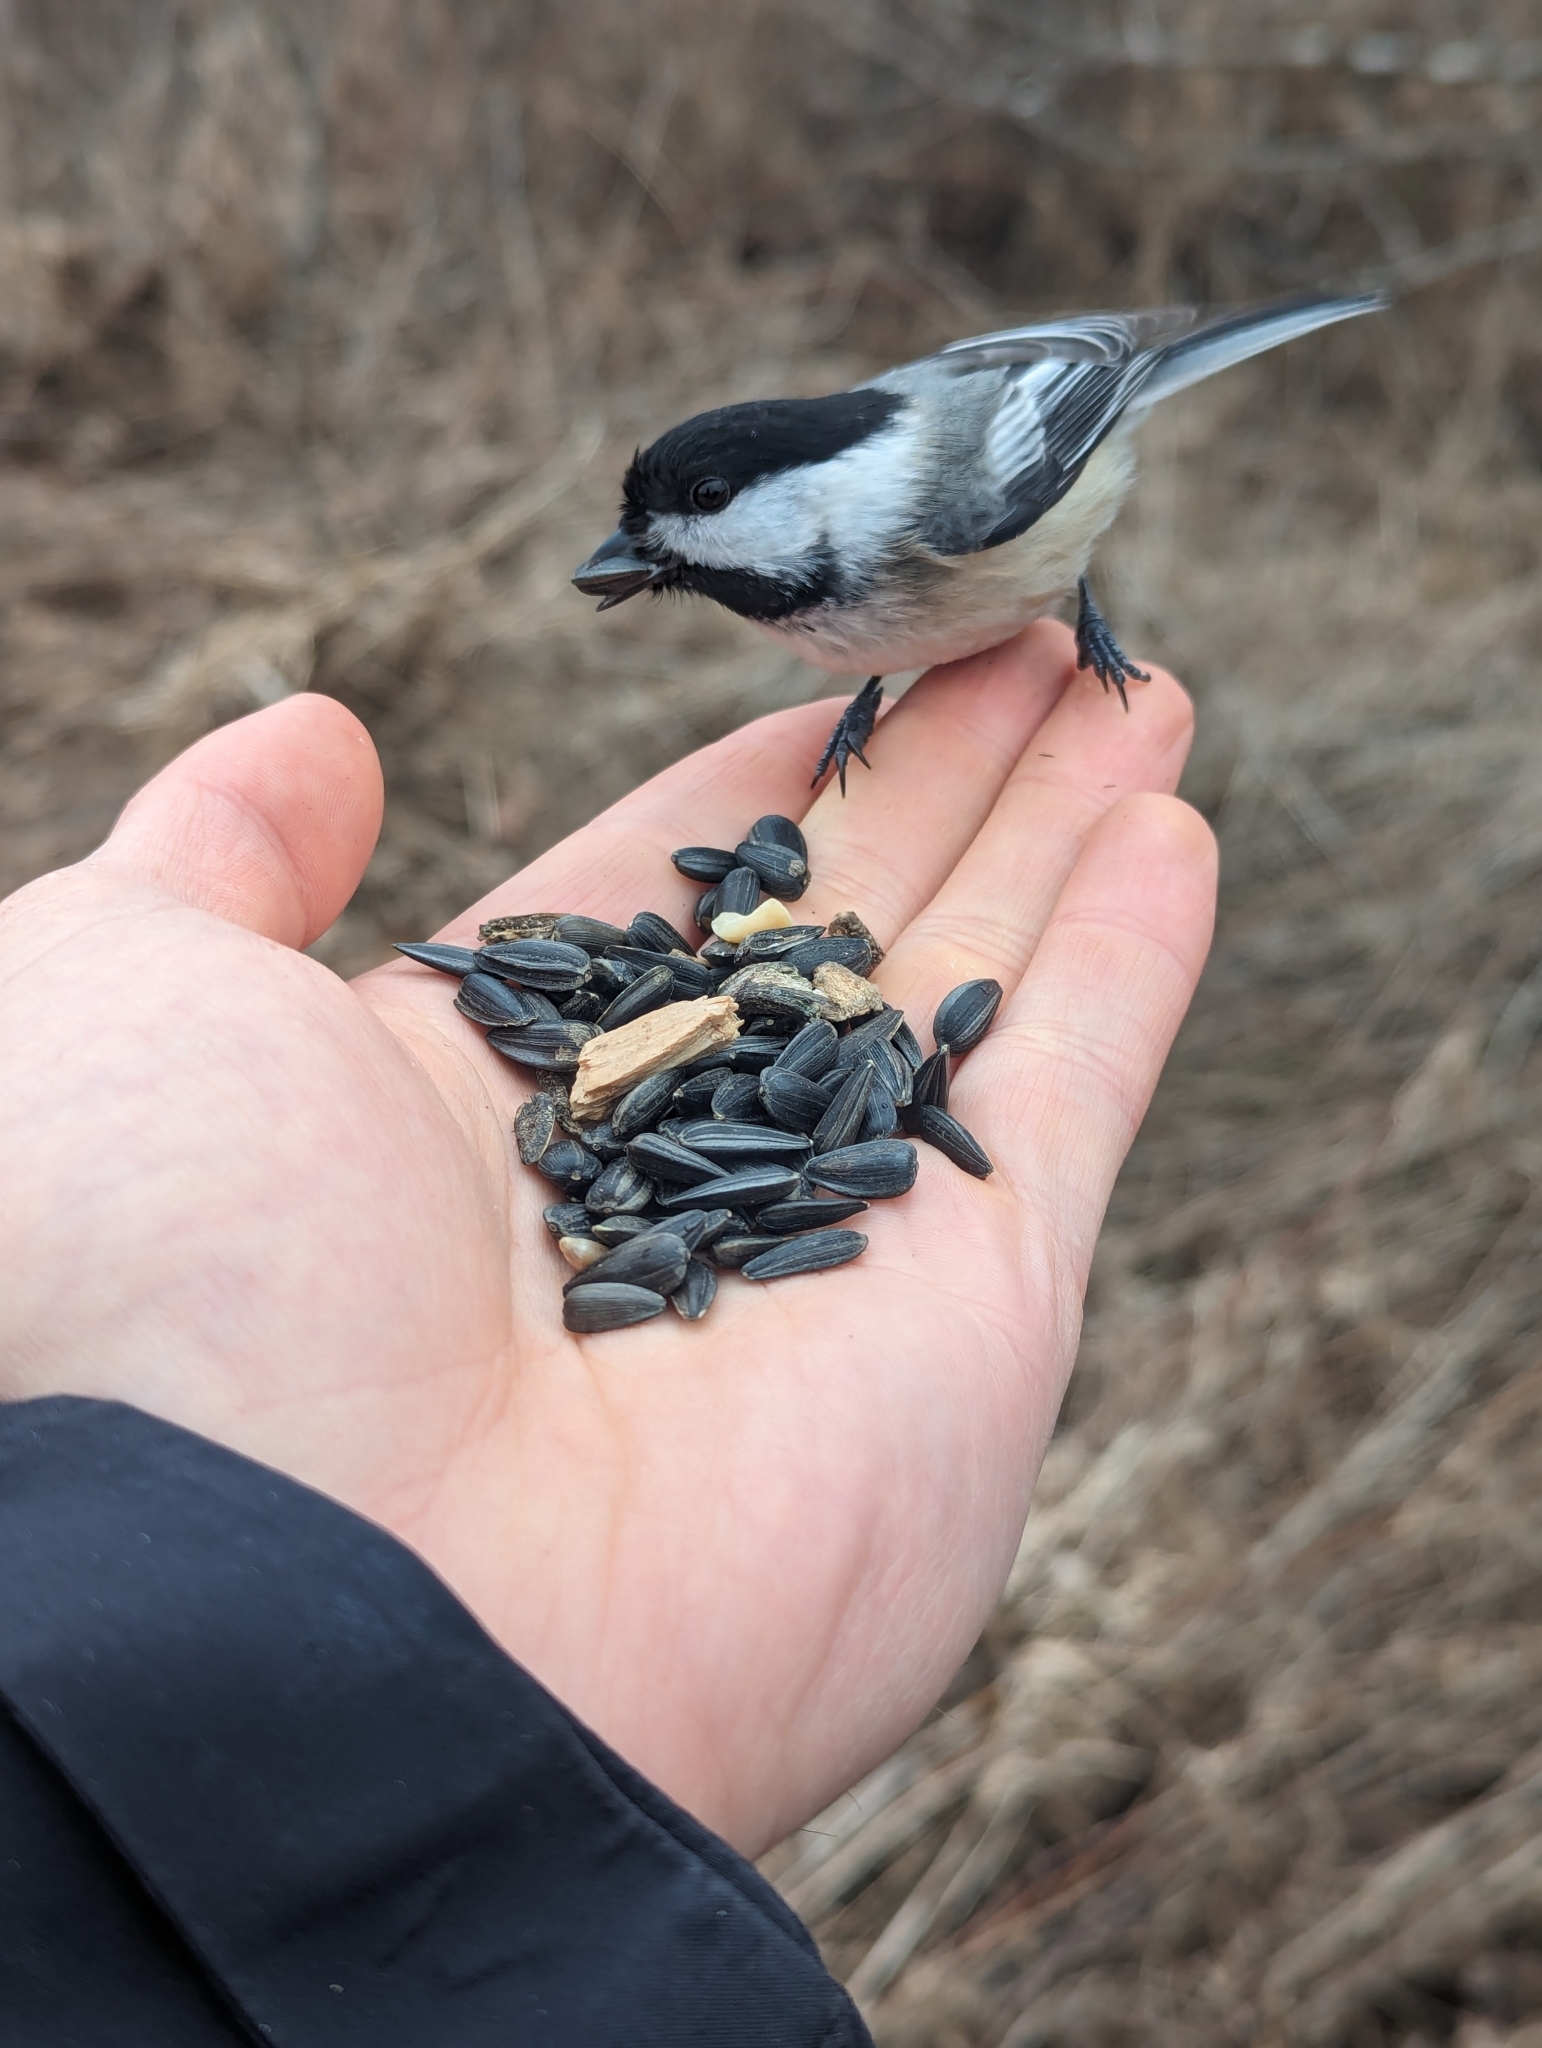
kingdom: Animalia
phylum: Chordata
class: Aves
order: Passeriformes
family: Paridae
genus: Poecile
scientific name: Poecile atricapillus
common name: Black-capped chickadee
